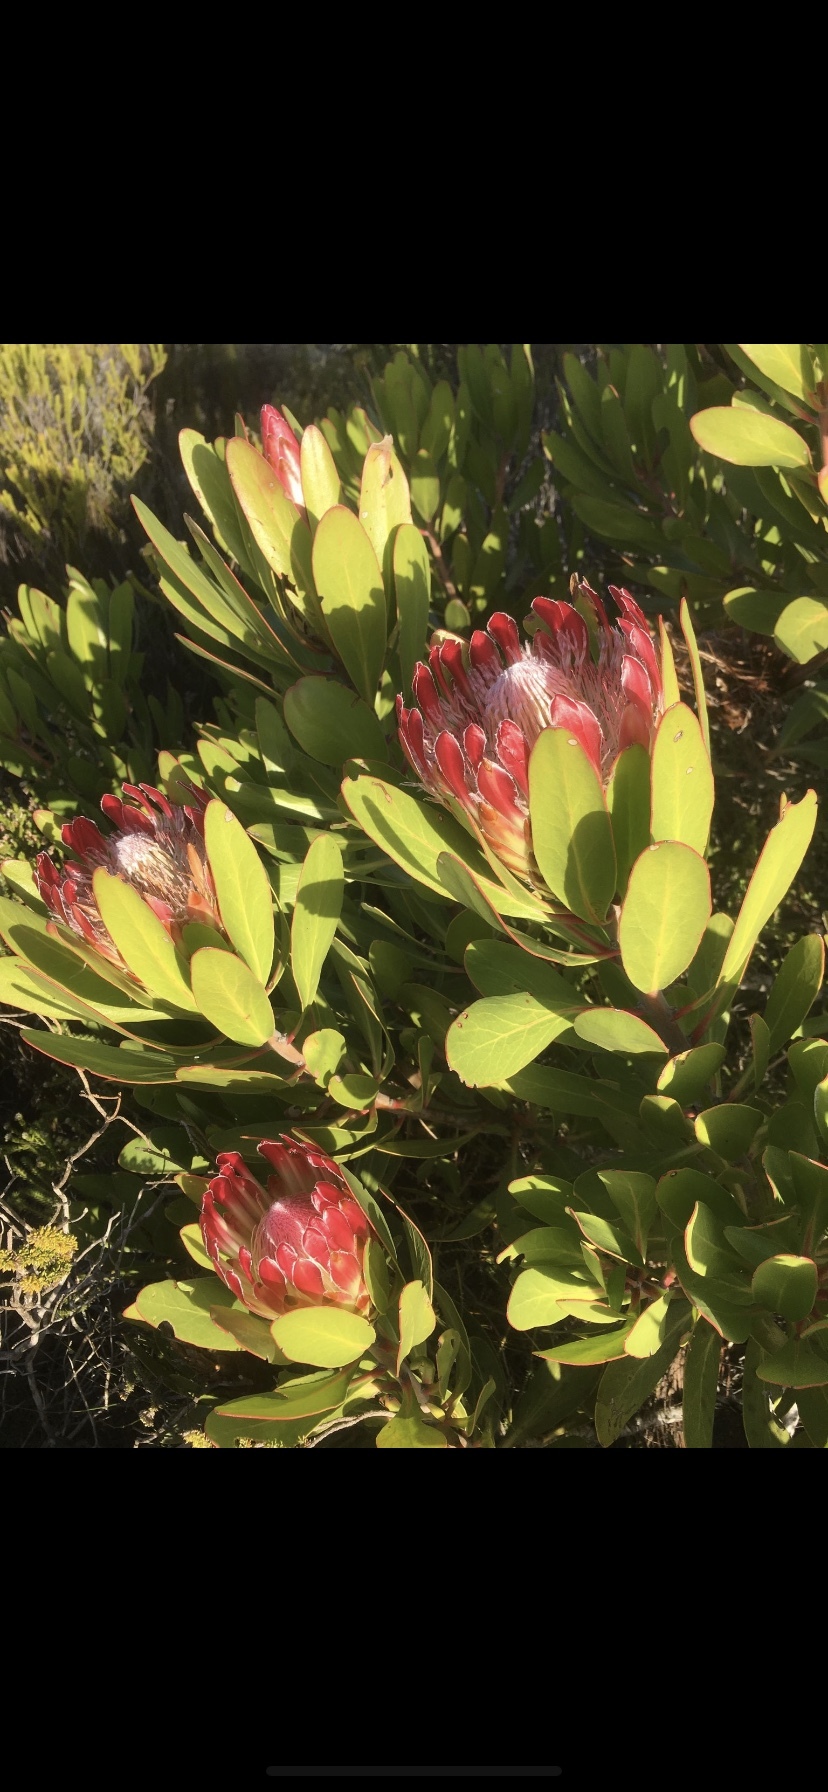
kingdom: Plantae
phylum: Tracheophyta
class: Magnoliopsida
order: Proteales
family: Proteaceae
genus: Protea
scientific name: Protea obtusifolia
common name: Bredasdorp sugarbush
